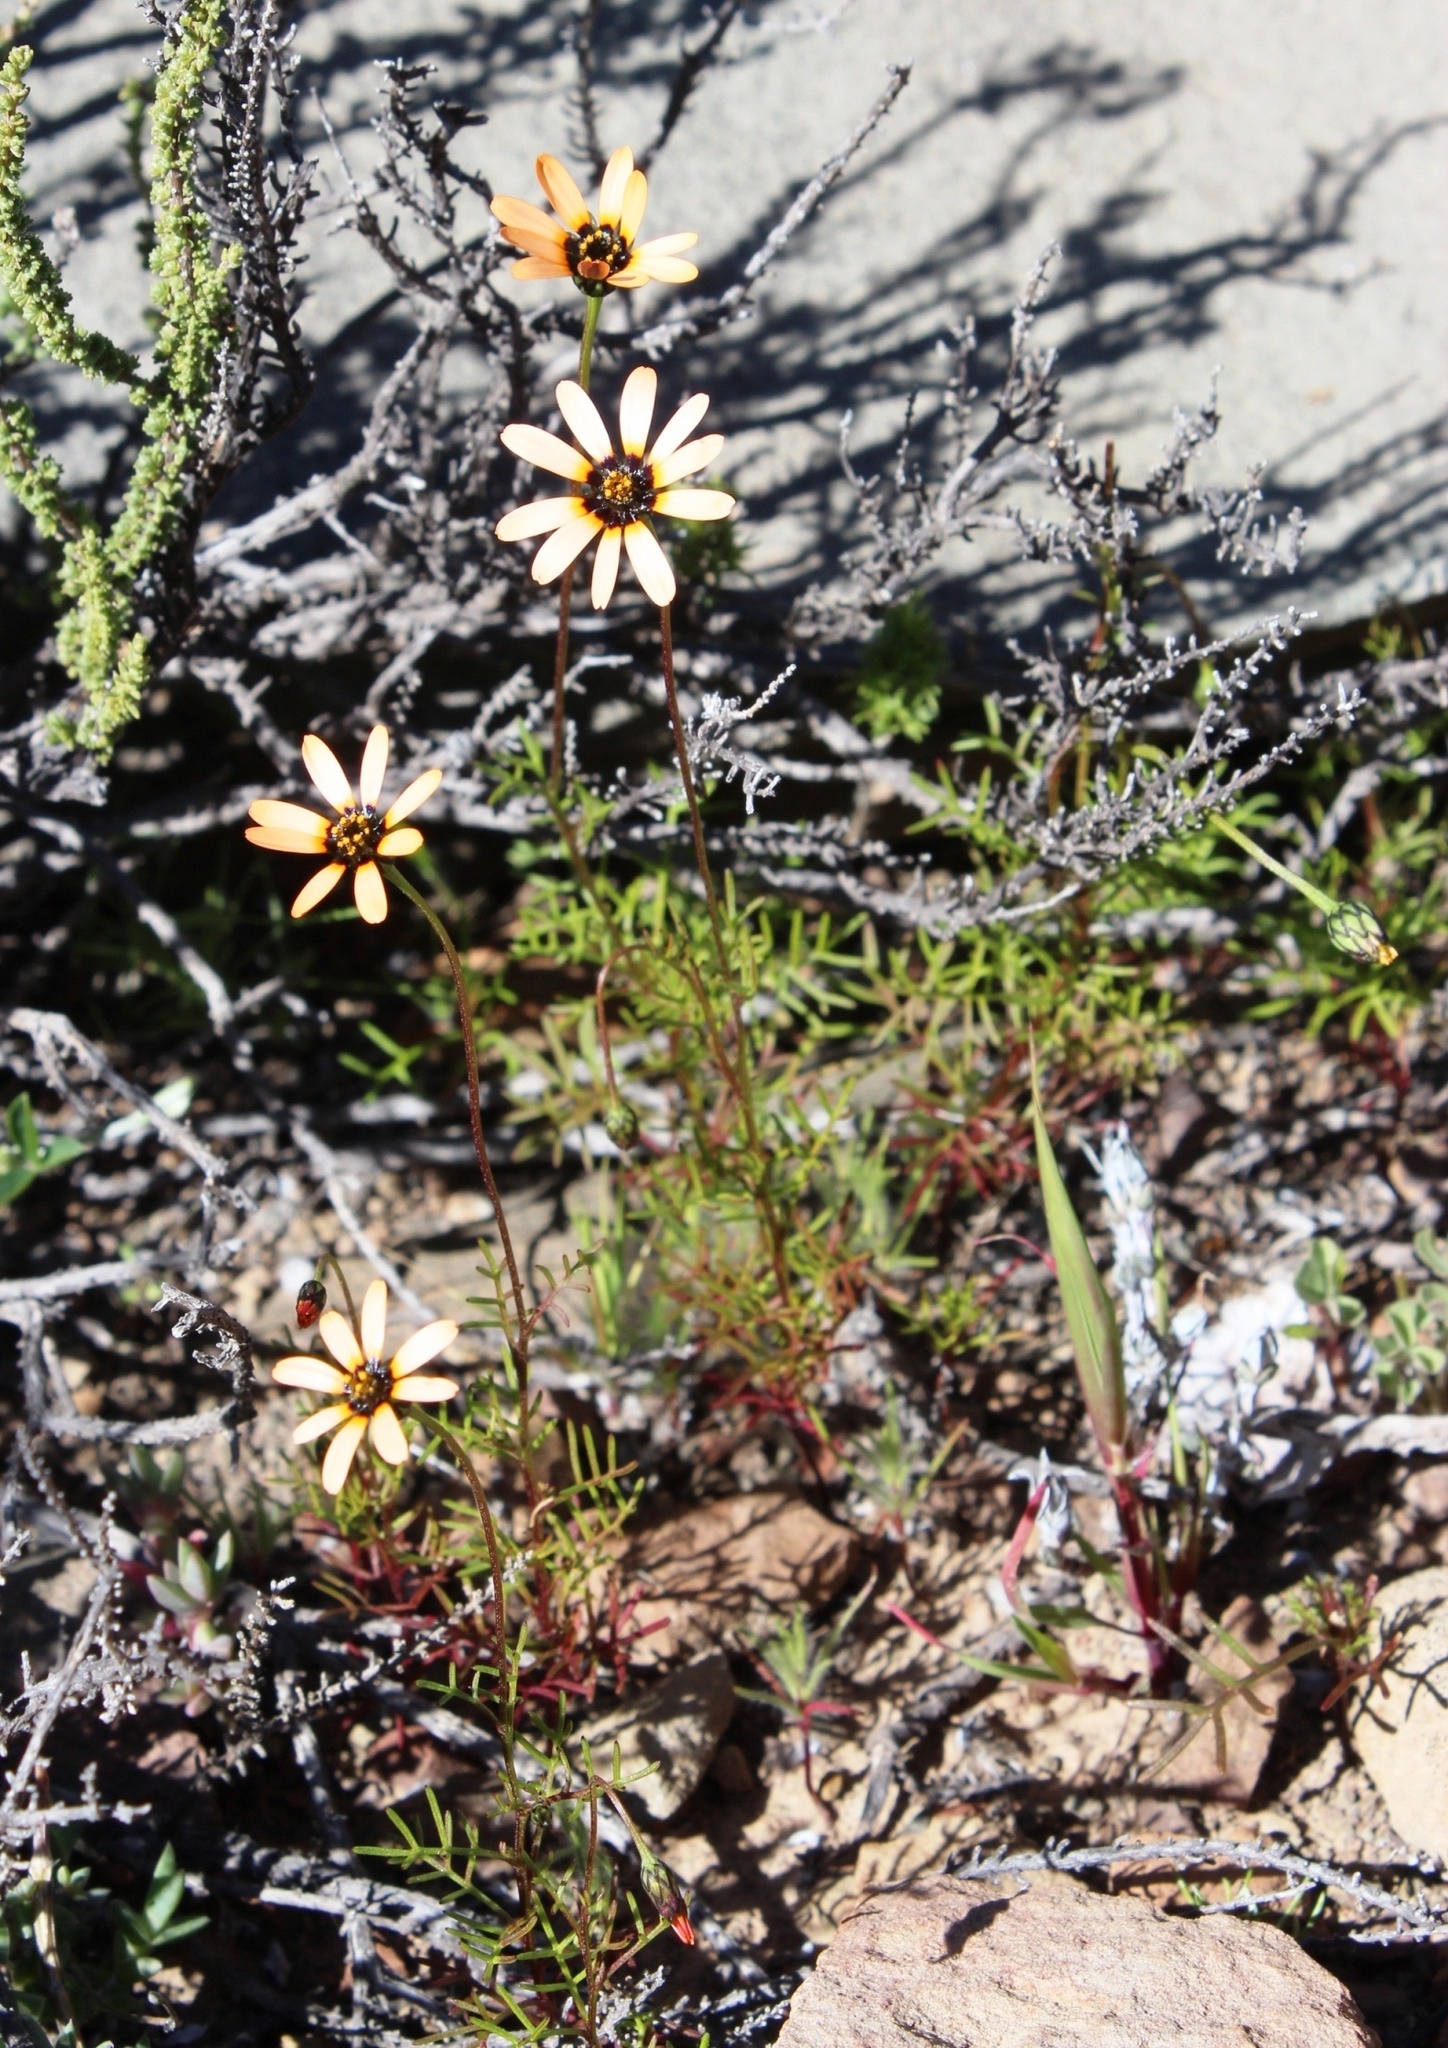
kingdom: Plantae
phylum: Tracheophyta
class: Magnoliopsida
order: Asterales
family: Asteraceae
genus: Ursinia
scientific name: Ursinia anthemoides
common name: Ursinia
